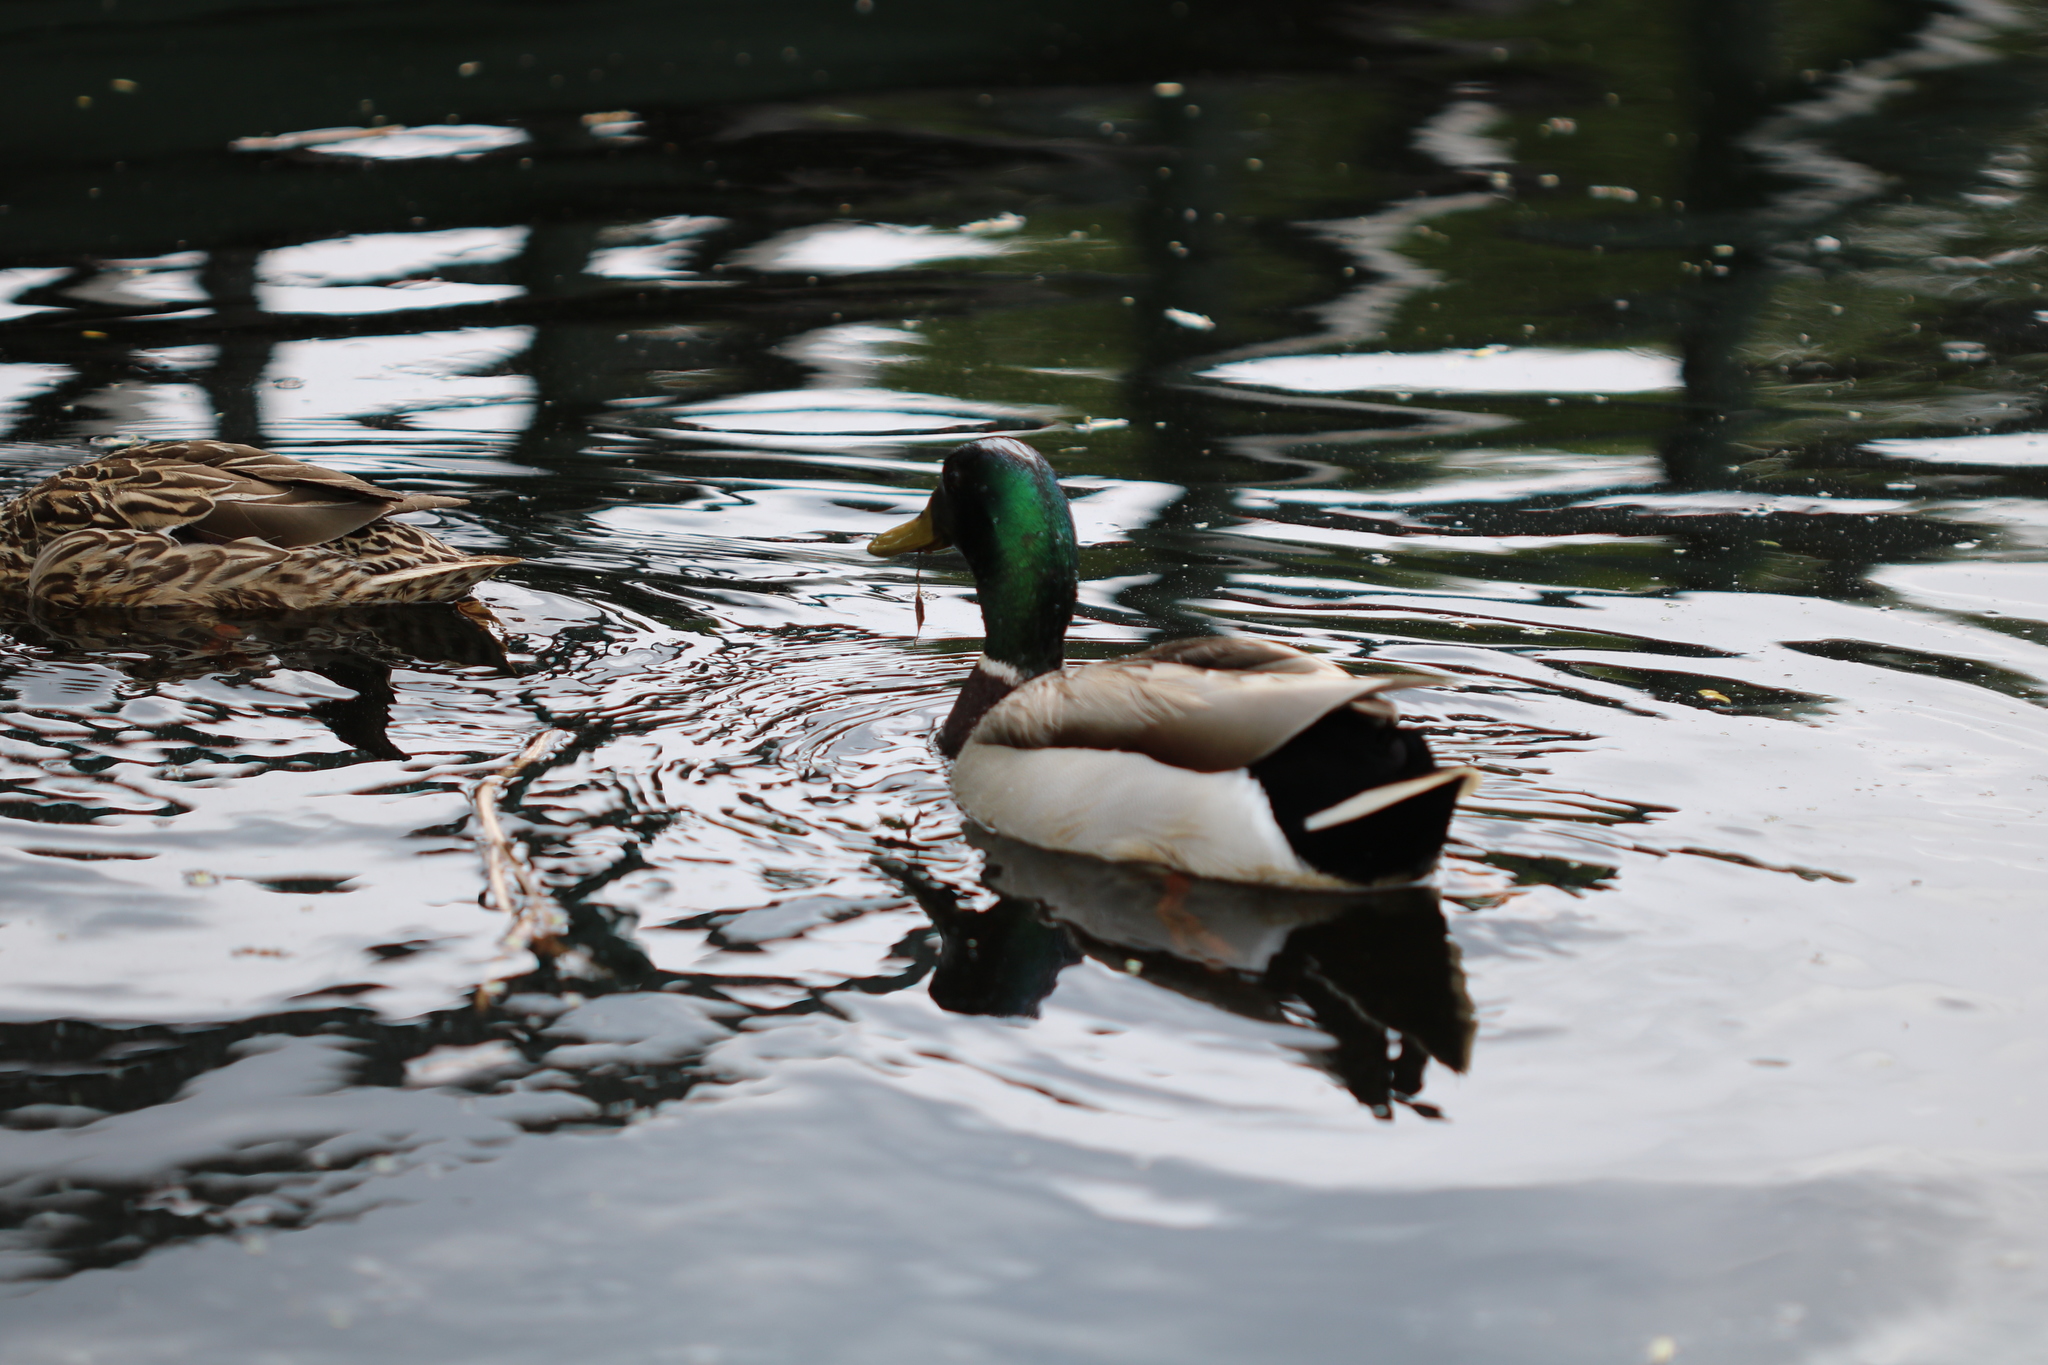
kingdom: Animalia
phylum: Chordata
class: Aves
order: Anseriformes
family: Anatidae
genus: Anas
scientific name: Anas platyrhynchos
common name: Mallard
